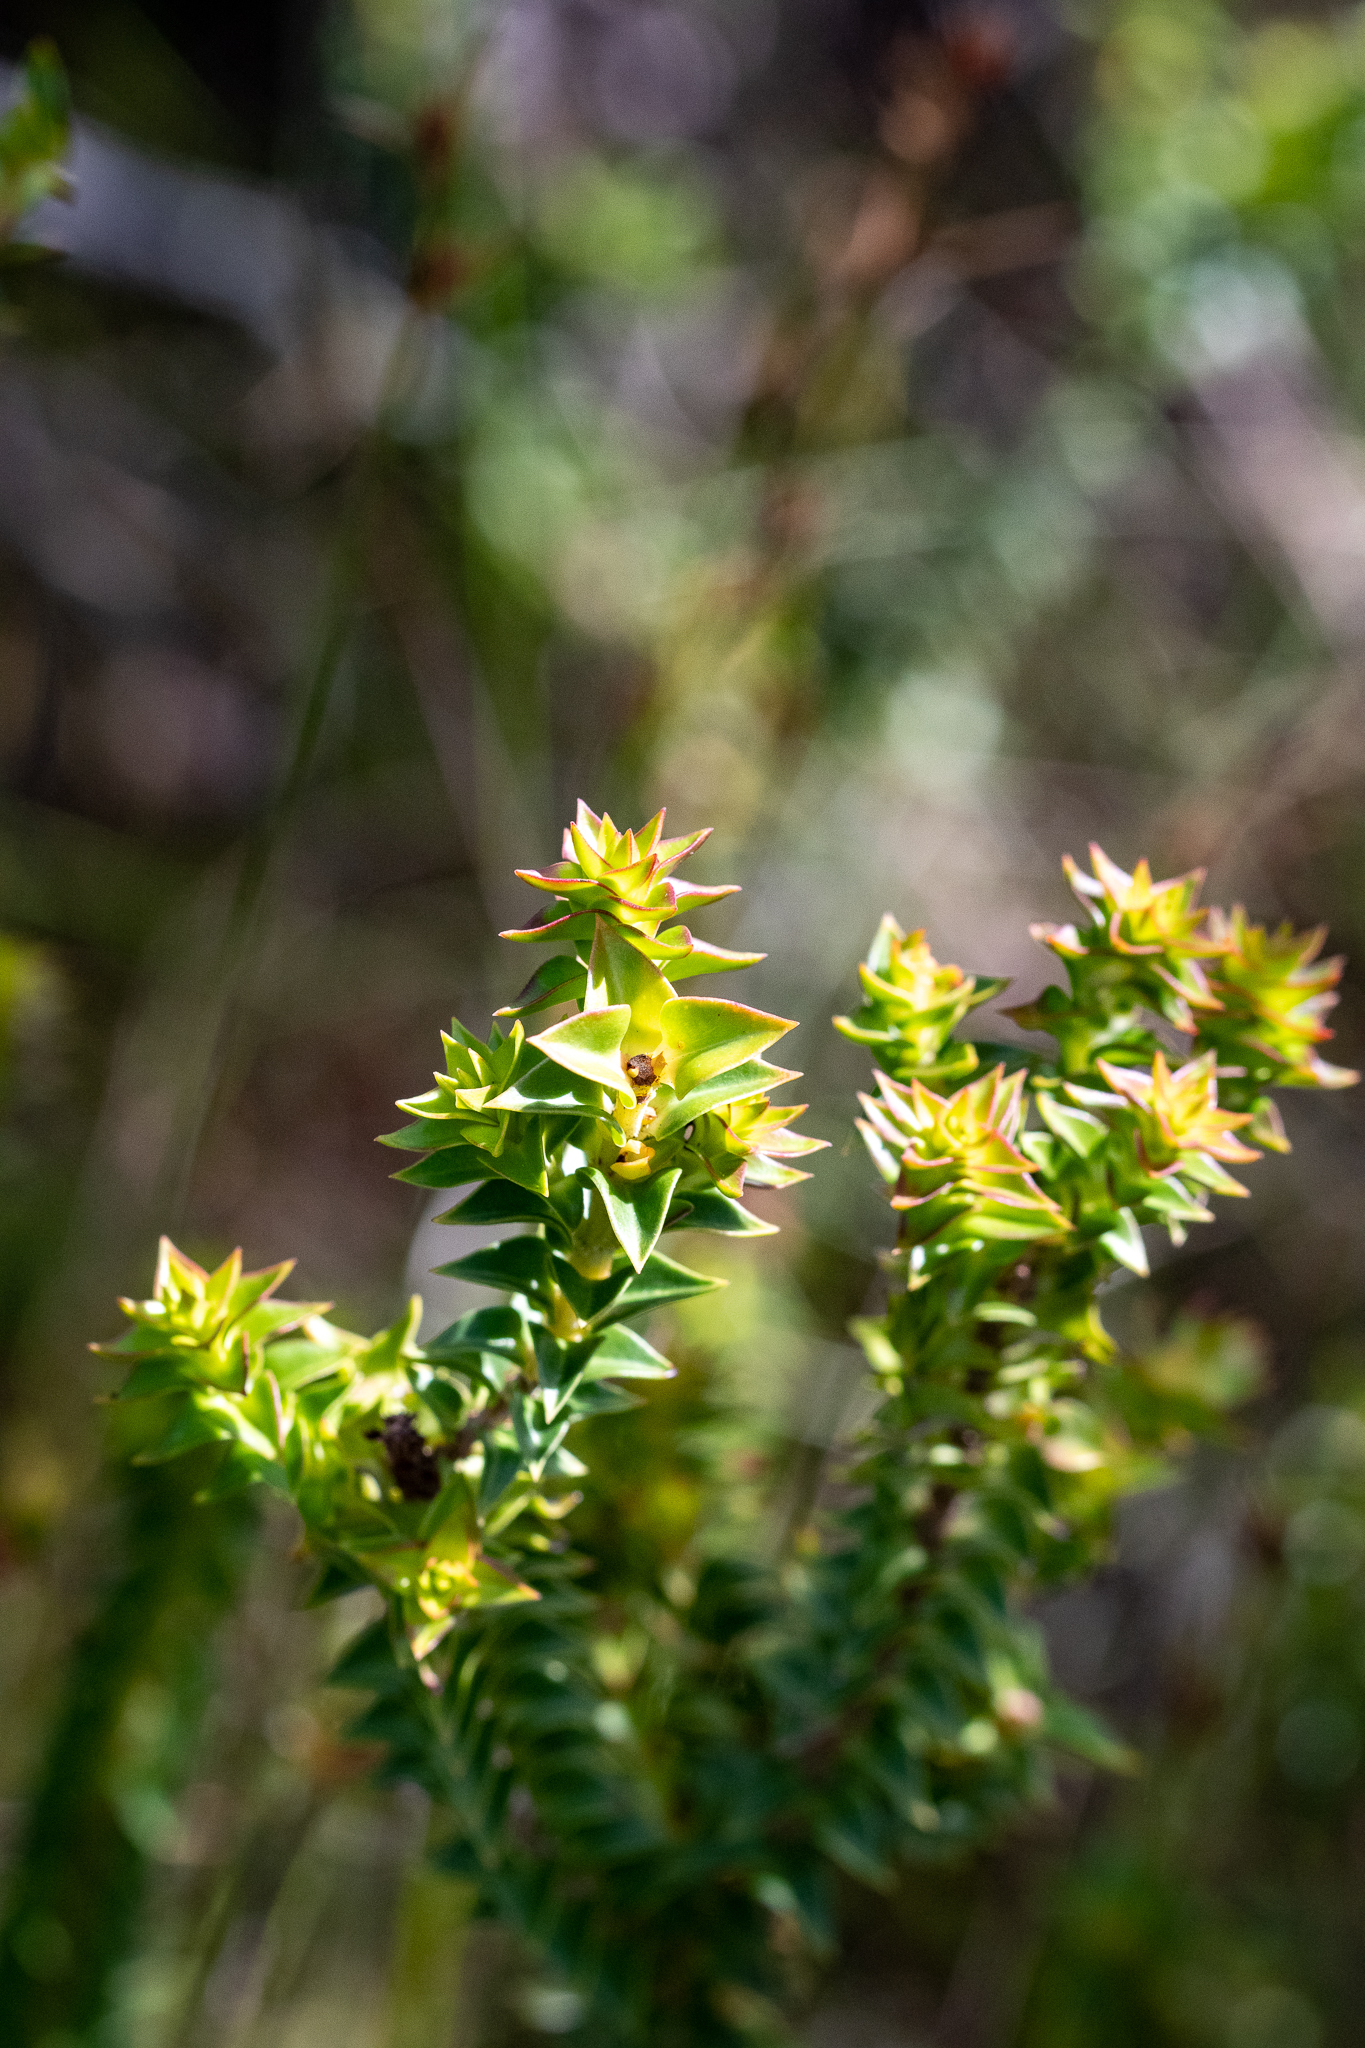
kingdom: Plantae
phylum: Tracheophyta
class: Magnoliopsida
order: Myrtales
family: Penaeaceae
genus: Penaea
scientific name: Penaea mucronata
